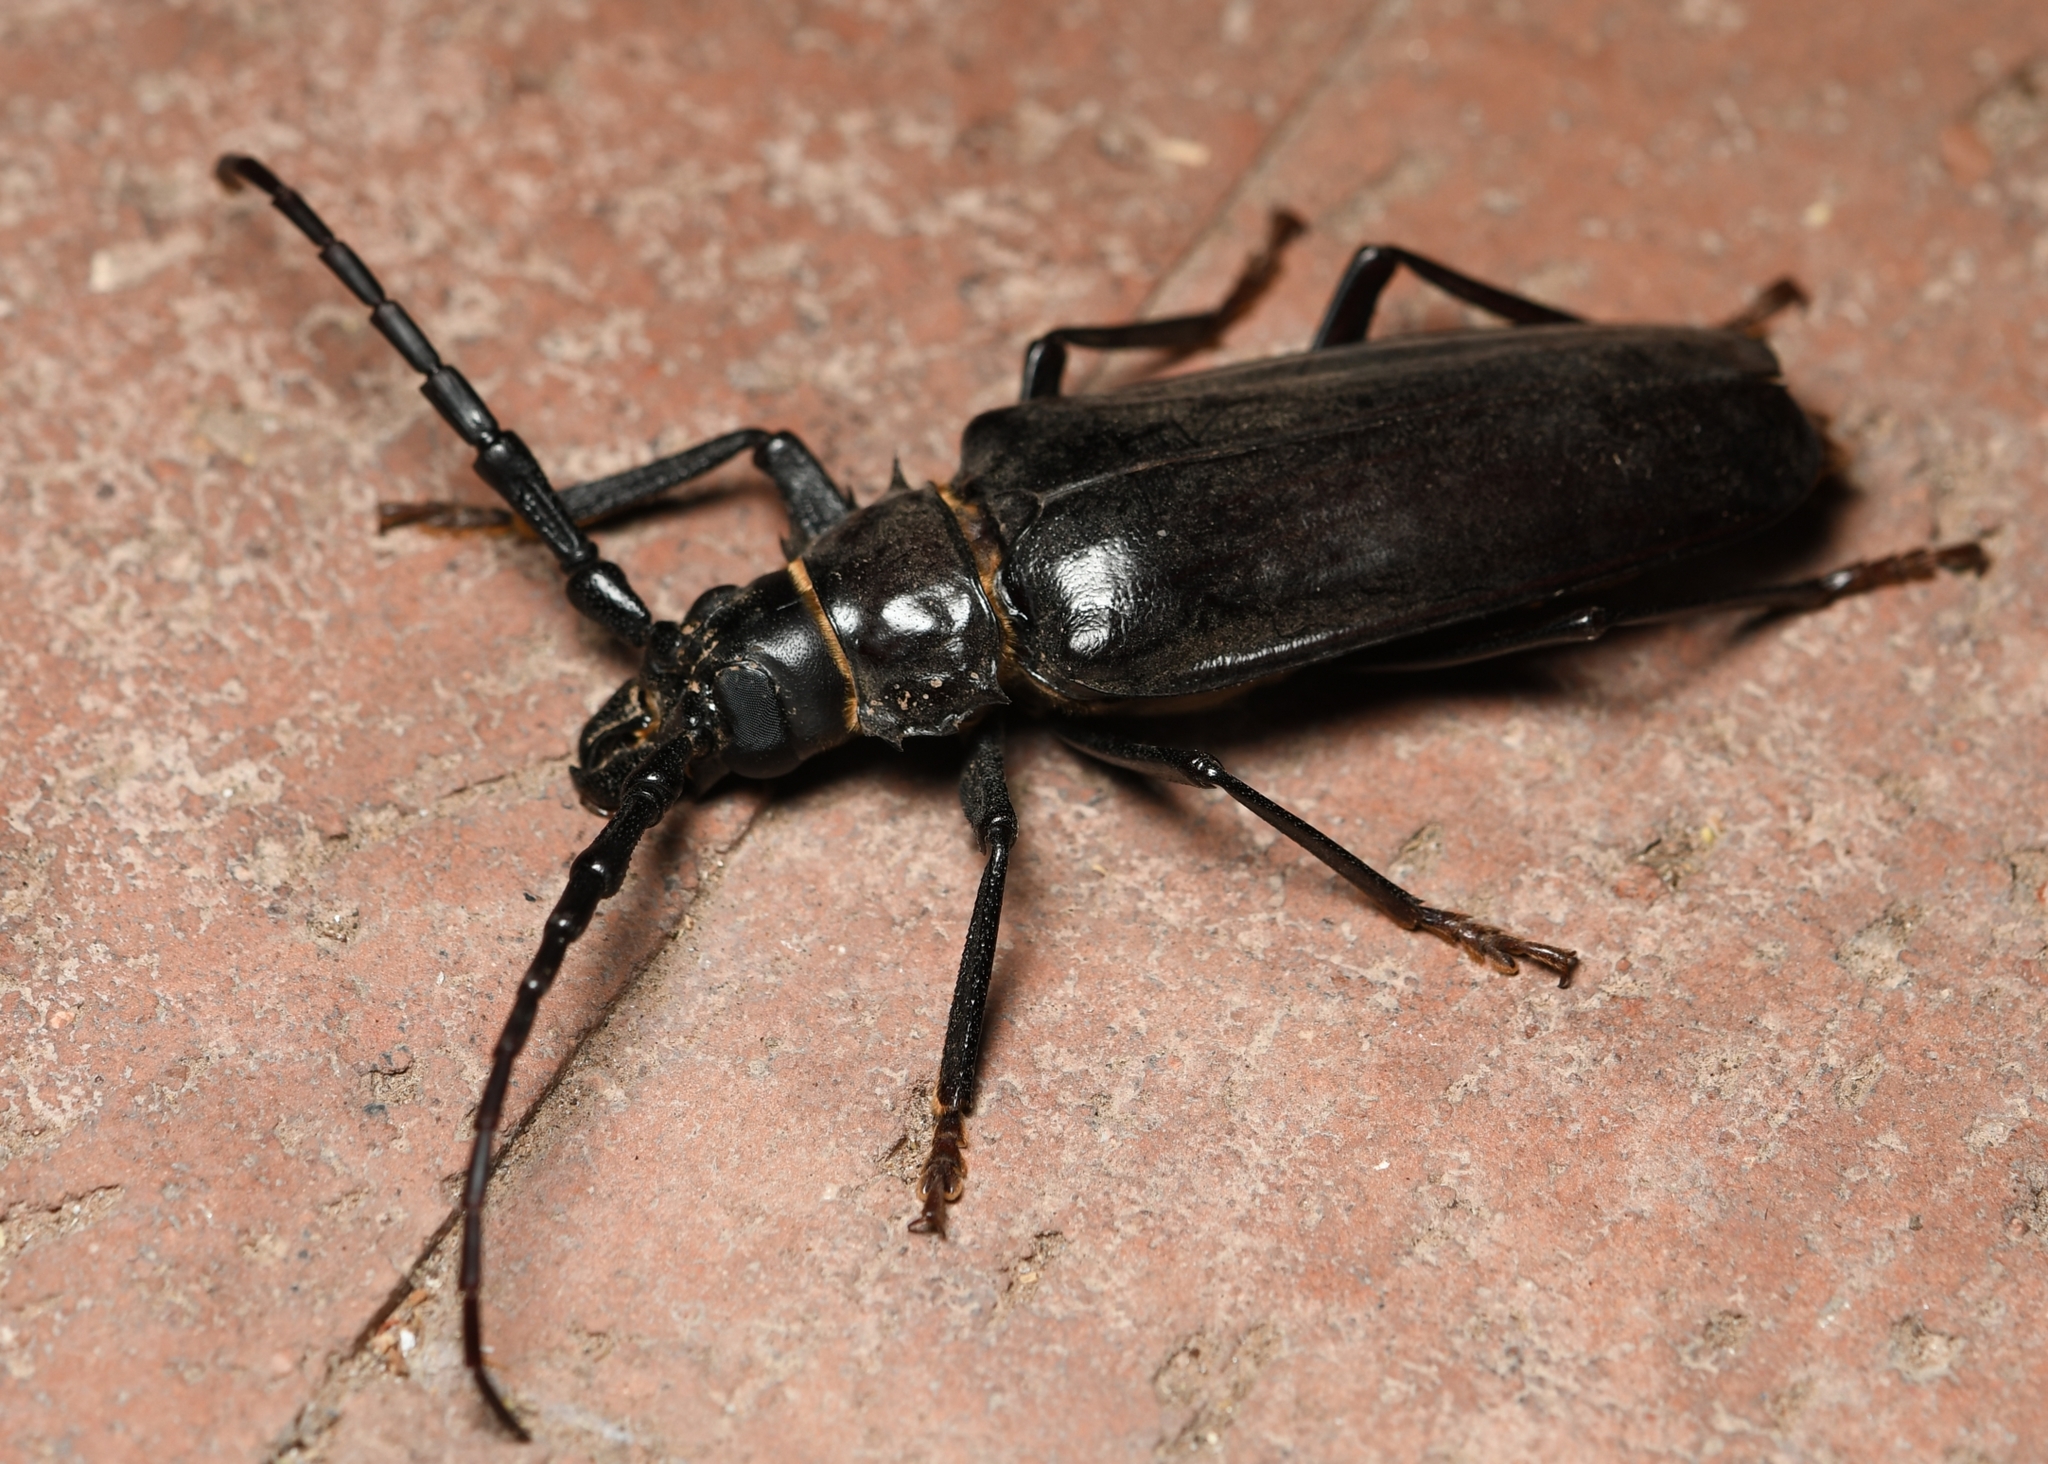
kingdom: Animalia
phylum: Arthropoda
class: Insecta
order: Coleoptera
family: Cerambycidae
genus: Derobrachus
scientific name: Derobrachus hovorei
